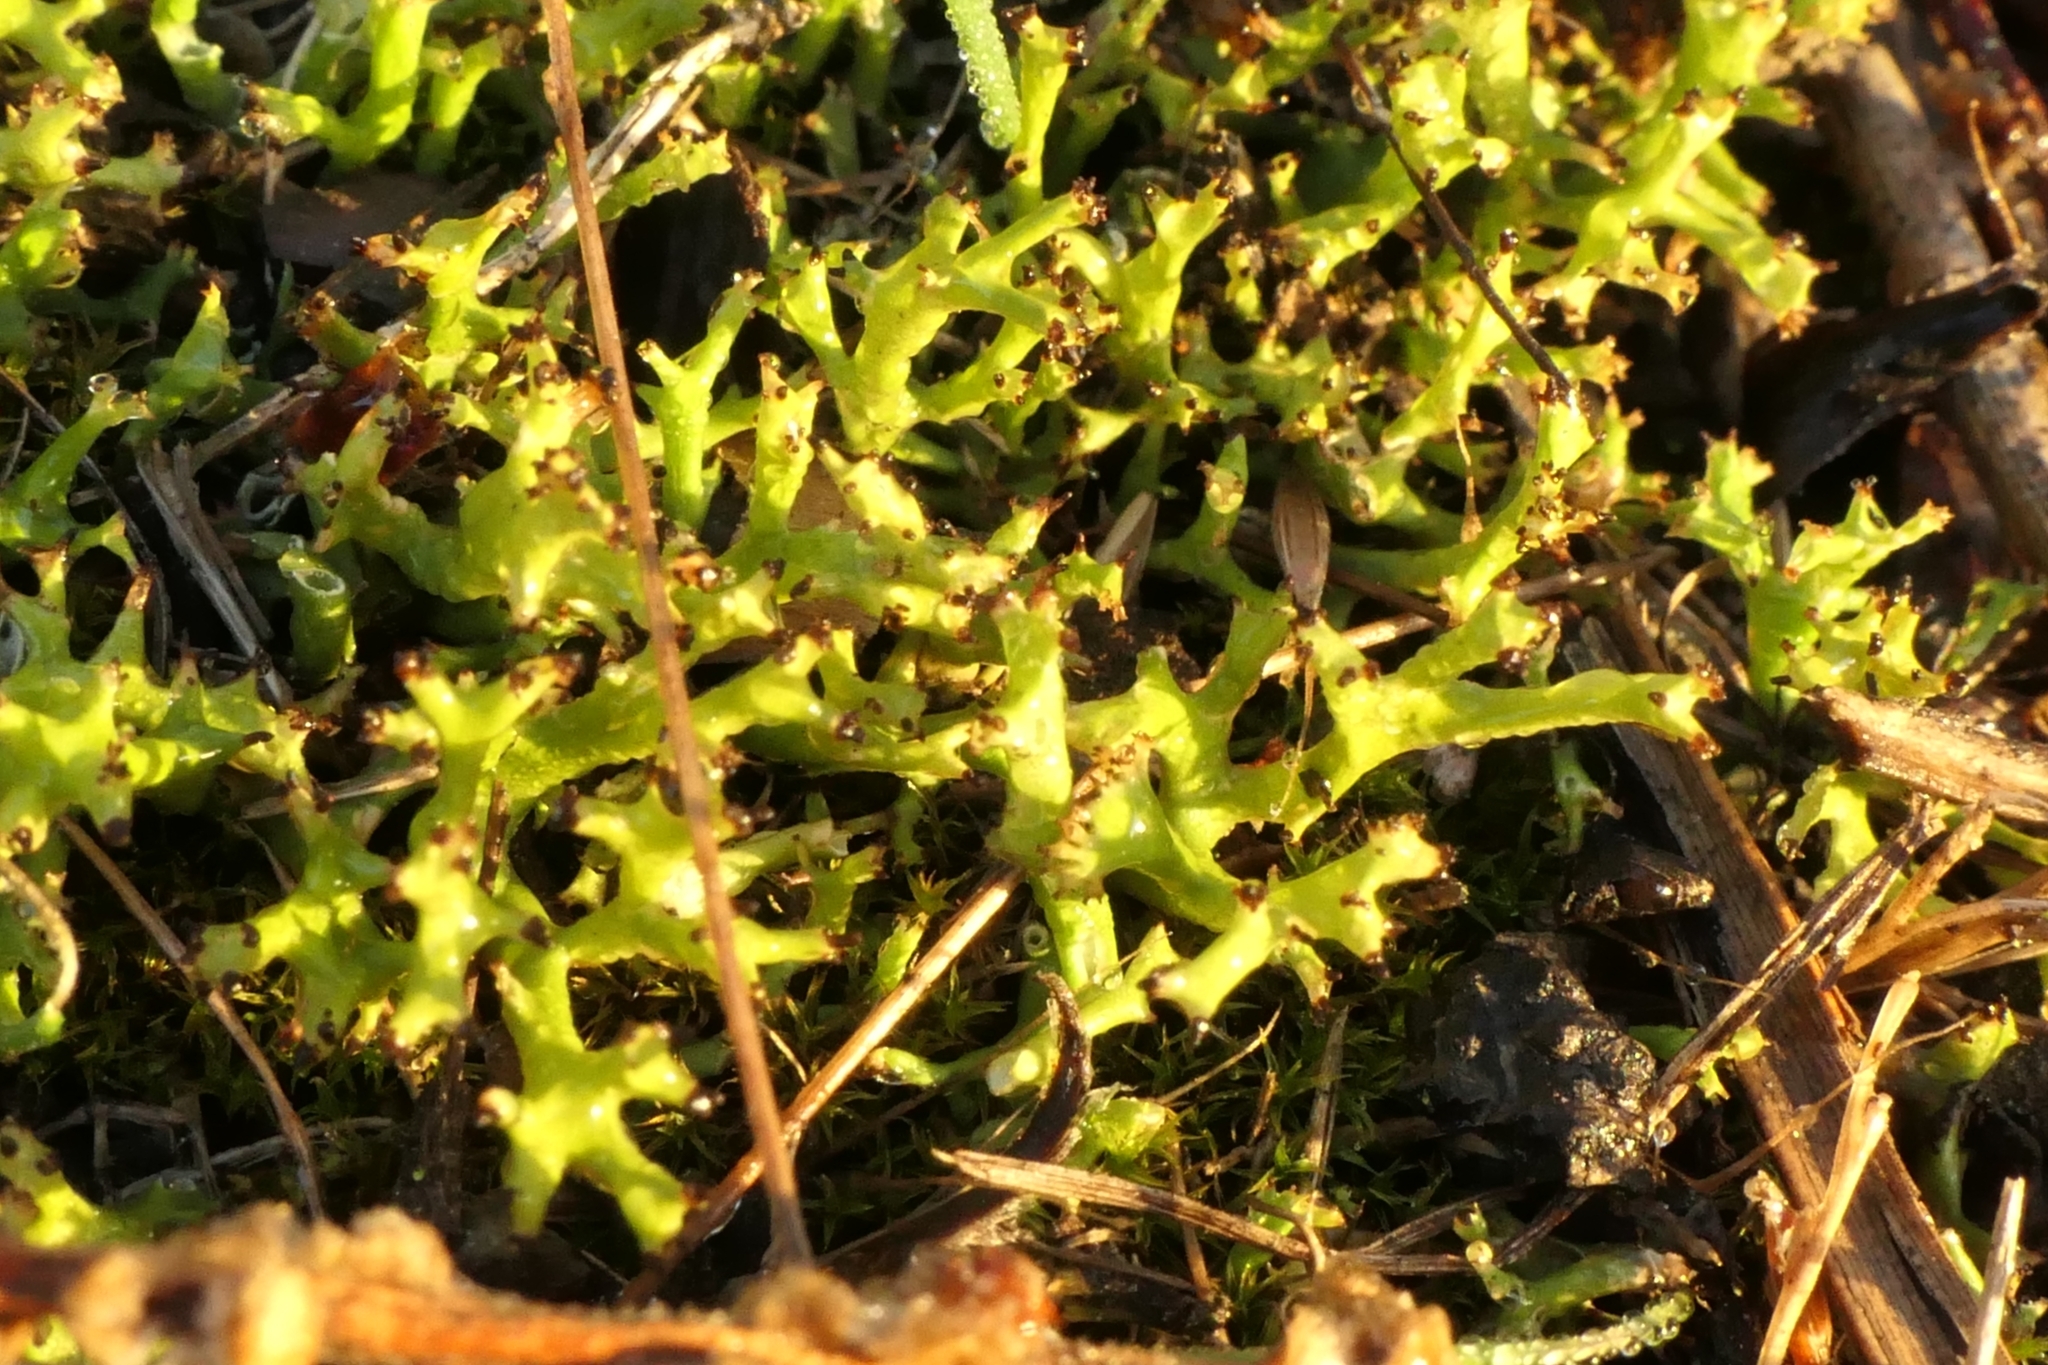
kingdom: Fungi
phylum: Ascomycota
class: Lecanoromycetes
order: Lecanorales
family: Cladoniaceae
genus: Cladia
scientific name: Cladia blanchonii
